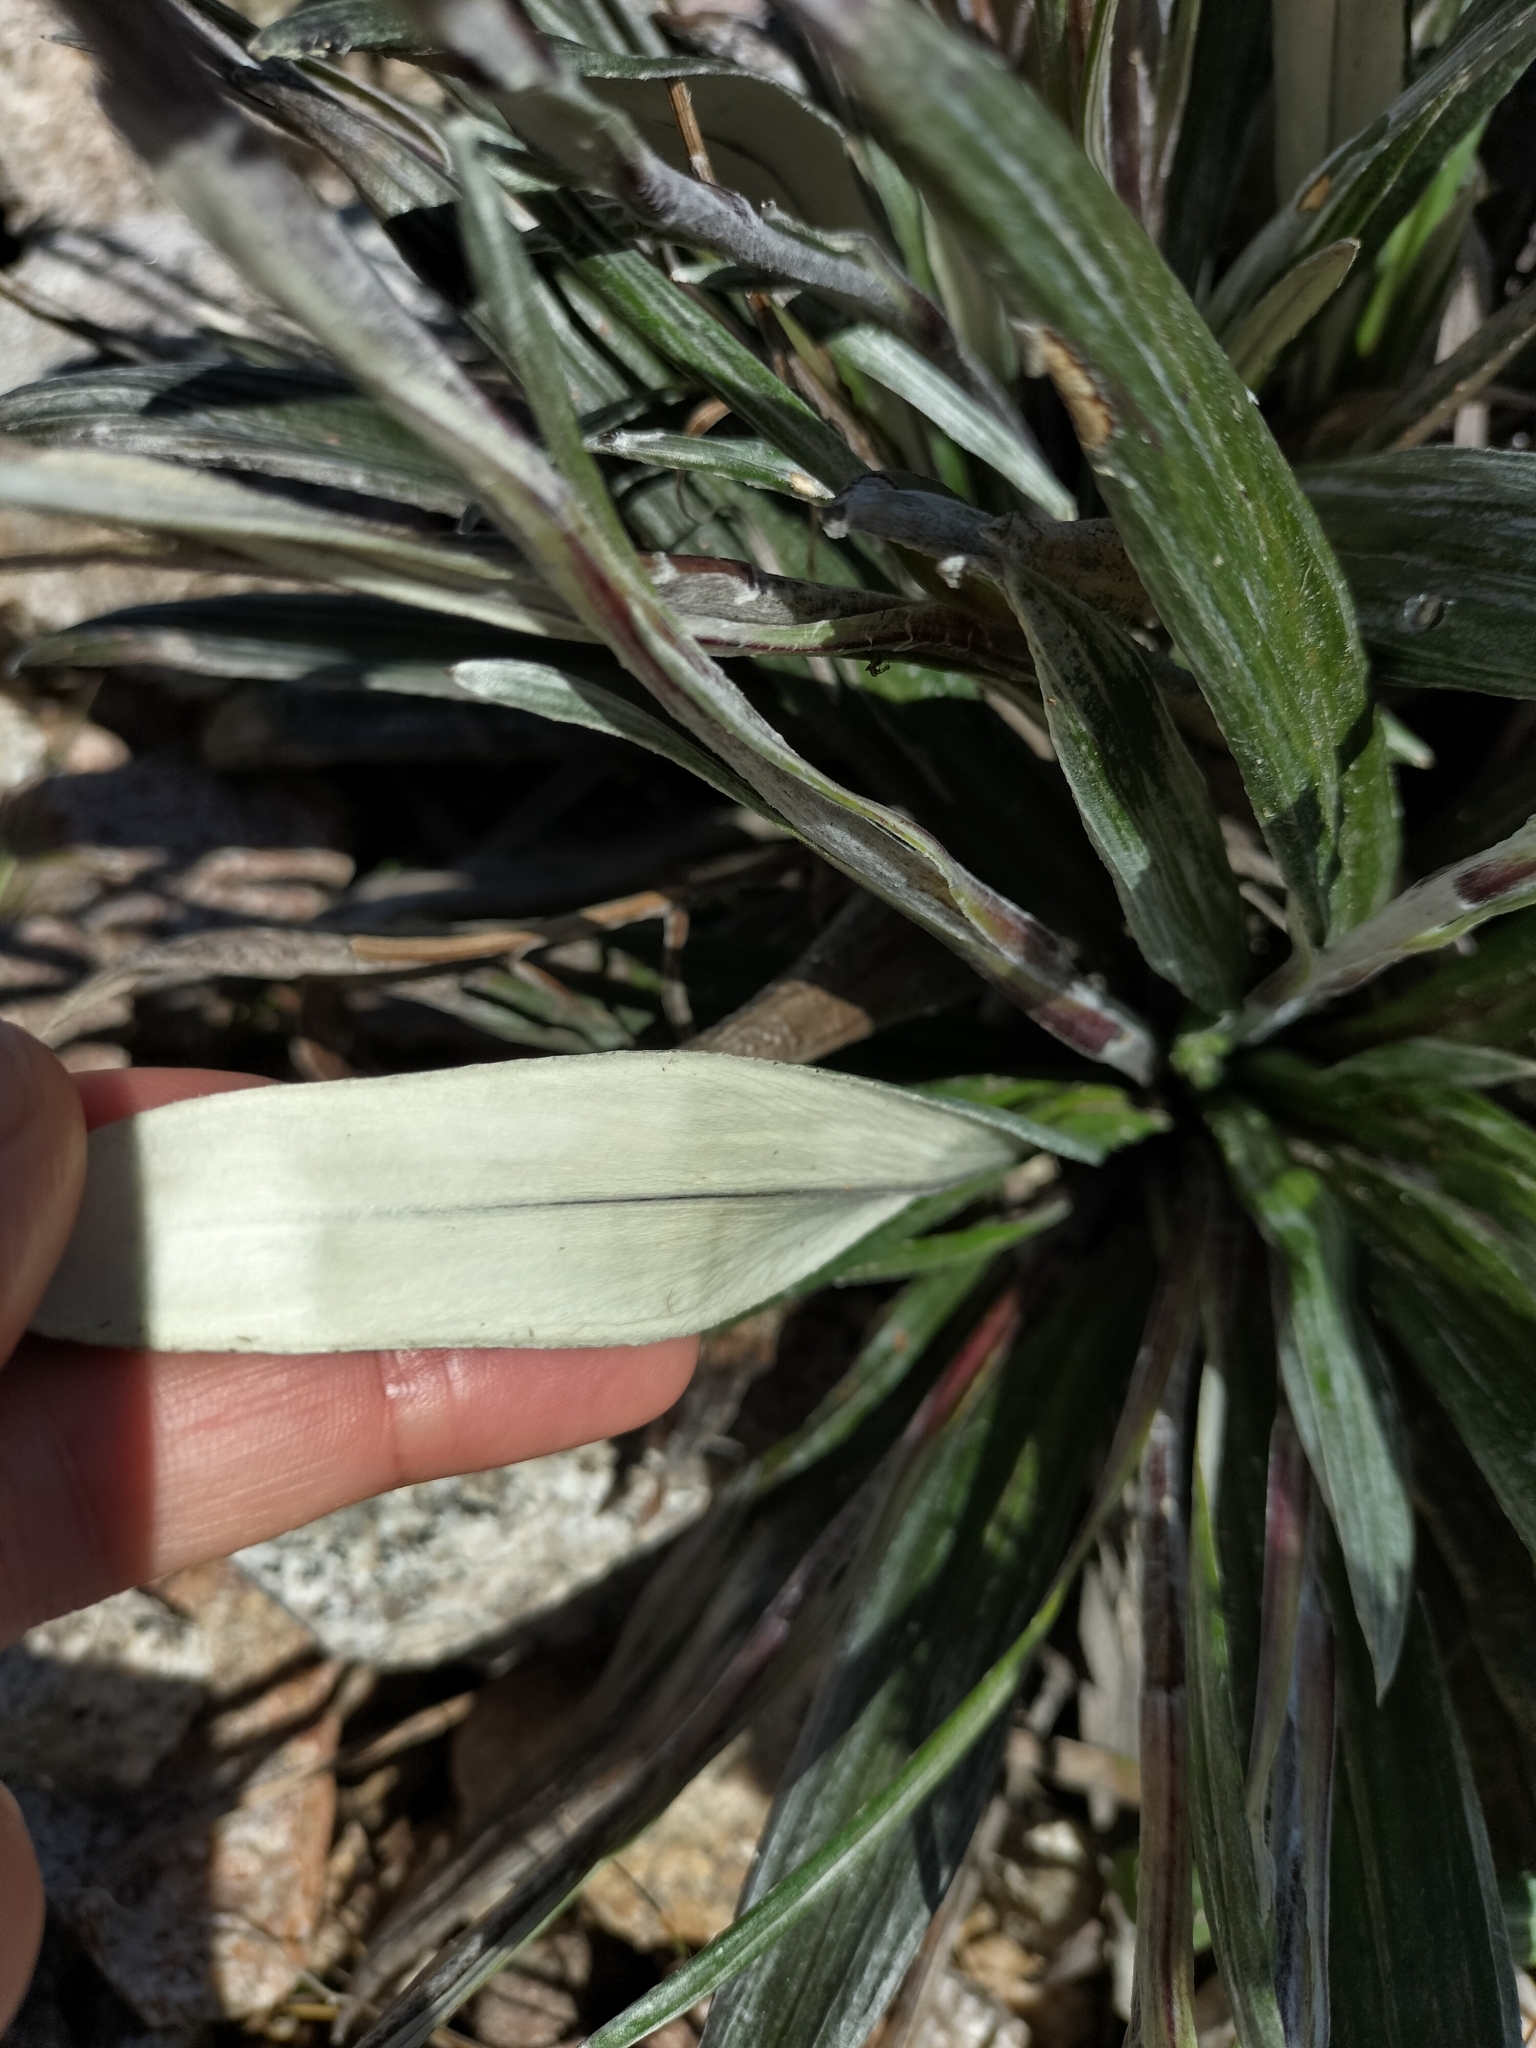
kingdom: Plantae
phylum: Tracheophyta
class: Magnoliopsida
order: Asterales
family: Asteraceae
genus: Celmisia
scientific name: Celmisia dubia
